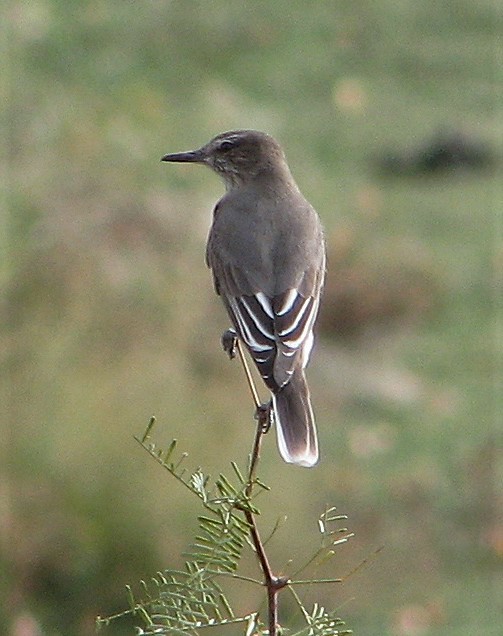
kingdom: Animalia
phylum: Chordata
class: Aves
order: Passeriformes
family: Tyrannidae
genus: Agriornis
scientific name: Agriornis montanus
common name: Black-billed shrike-tyrant
